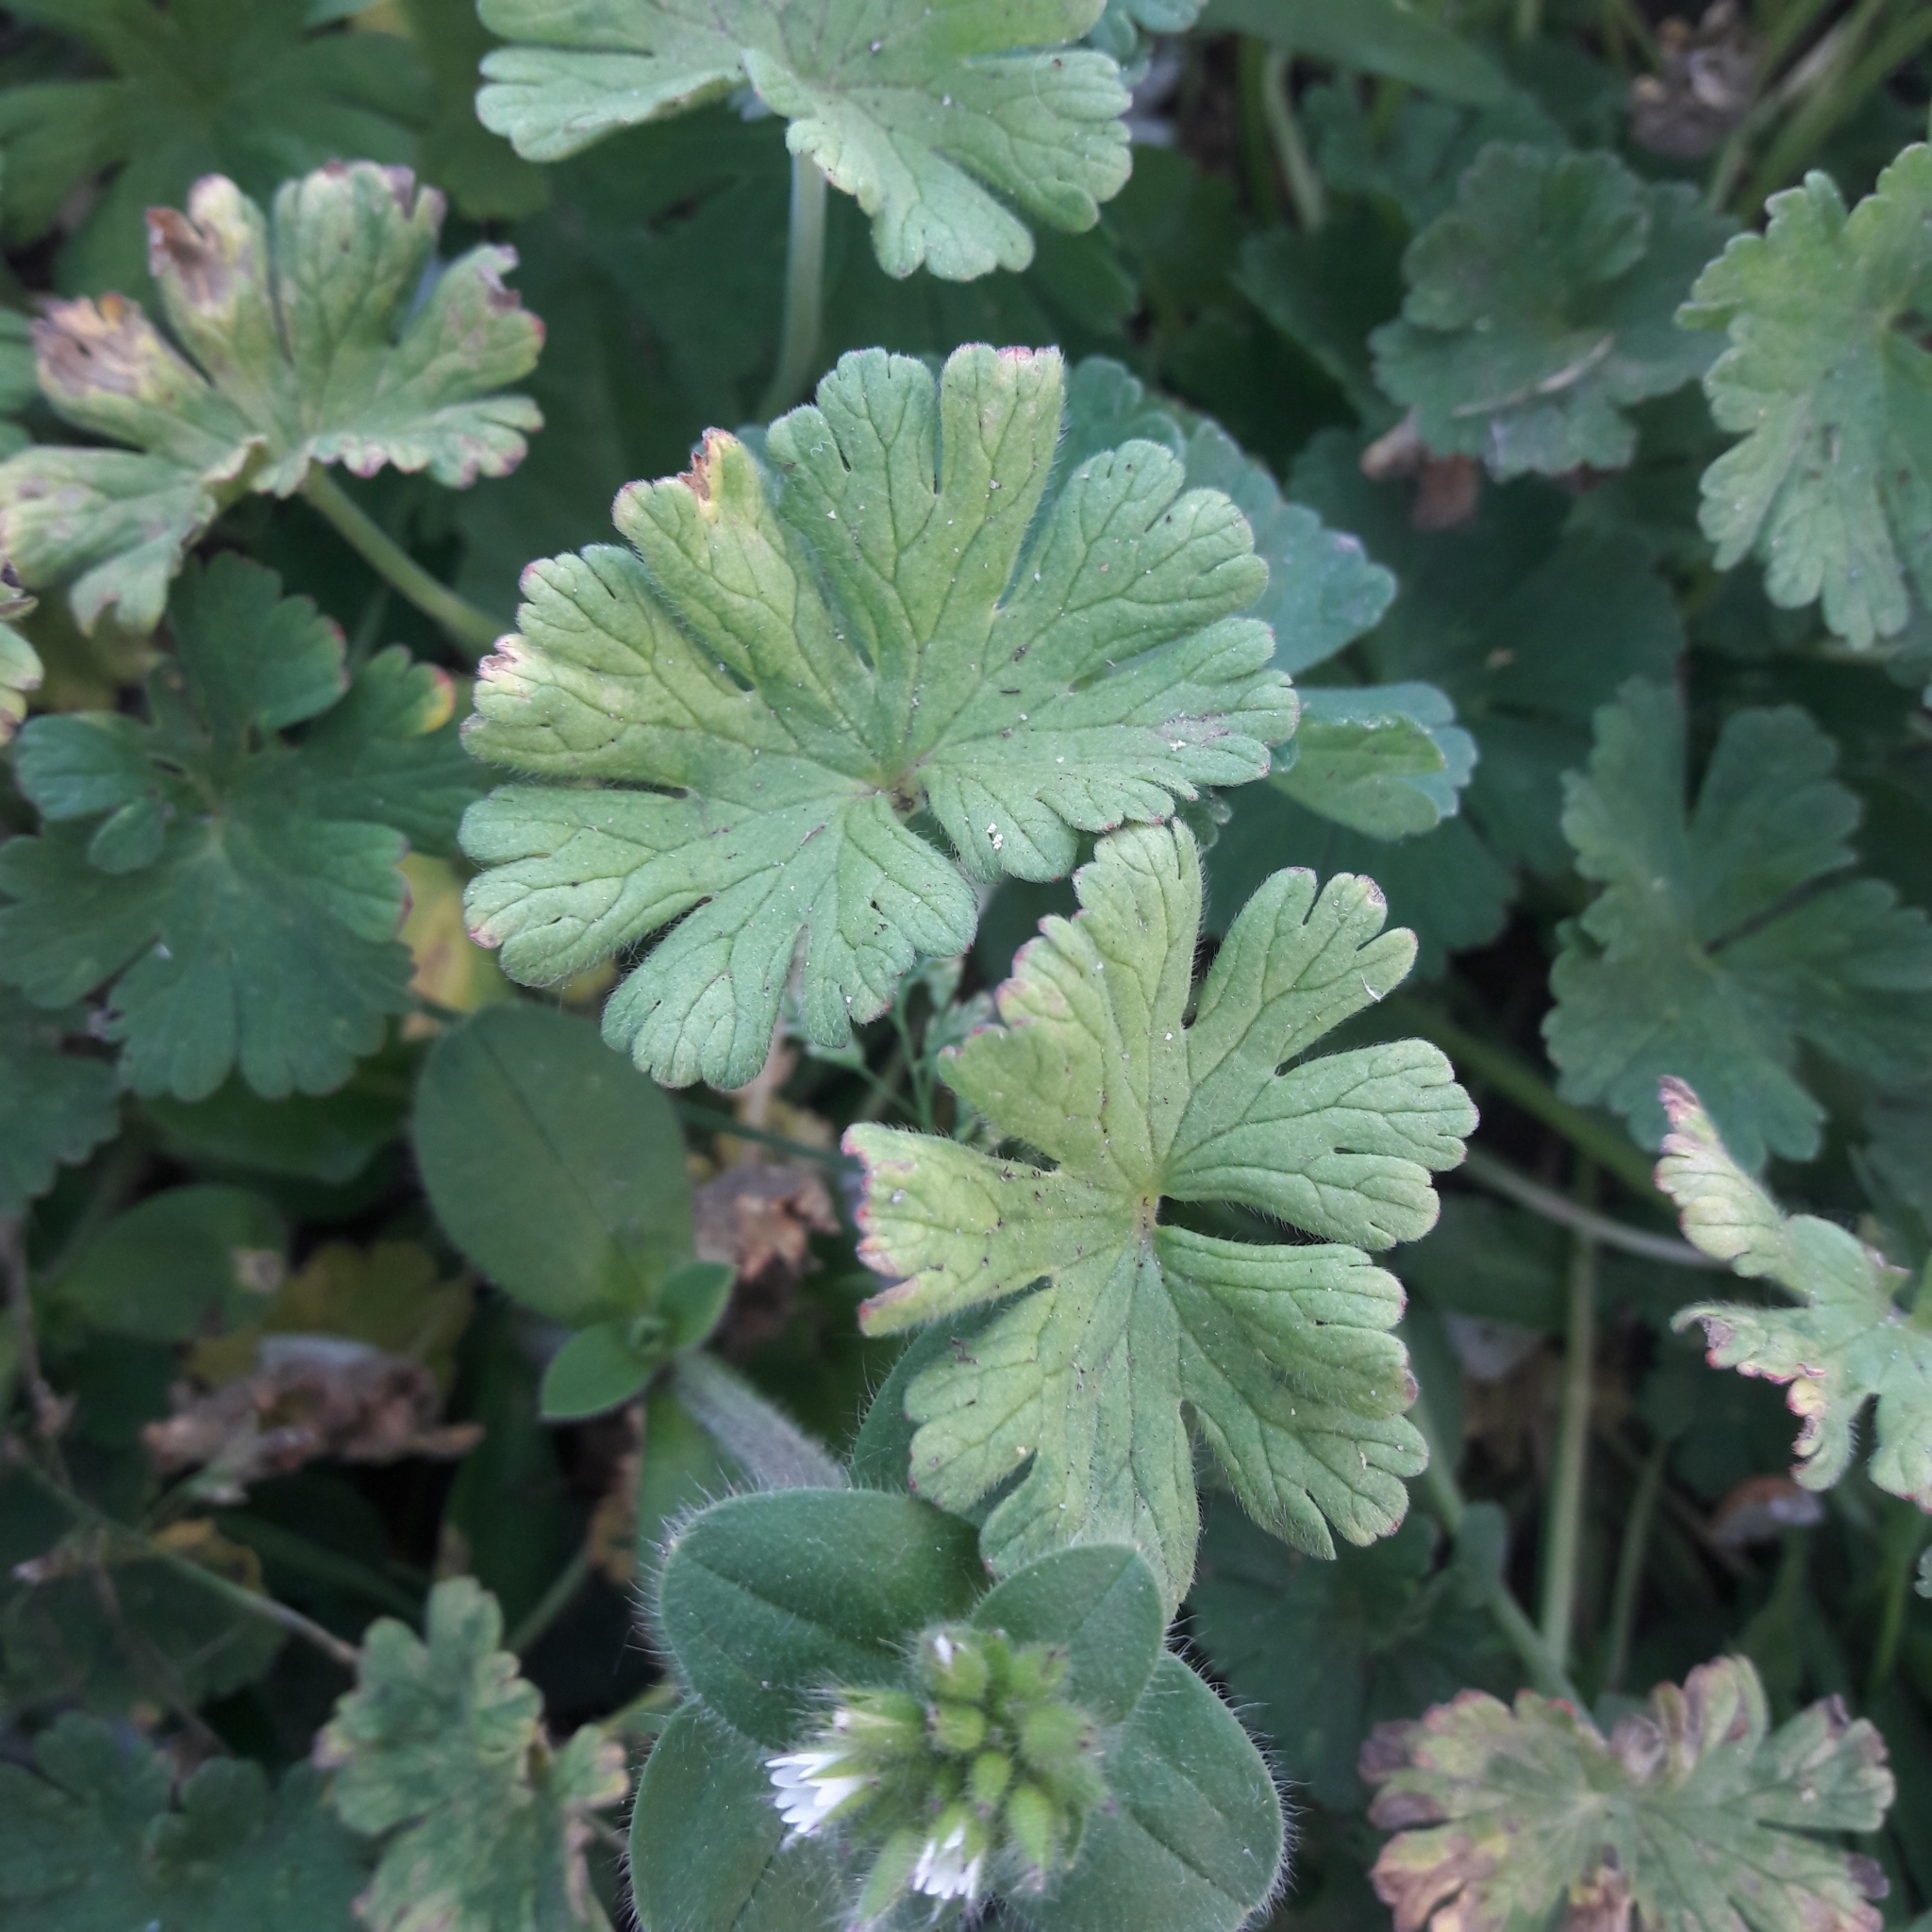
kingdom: Plantae
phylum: Tracheophyta
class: Magnoliopsida
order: Geraniales
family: Geraniaceae
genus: Geranium
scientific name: Geranium molle
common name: Dove's-foot crane's-bill
